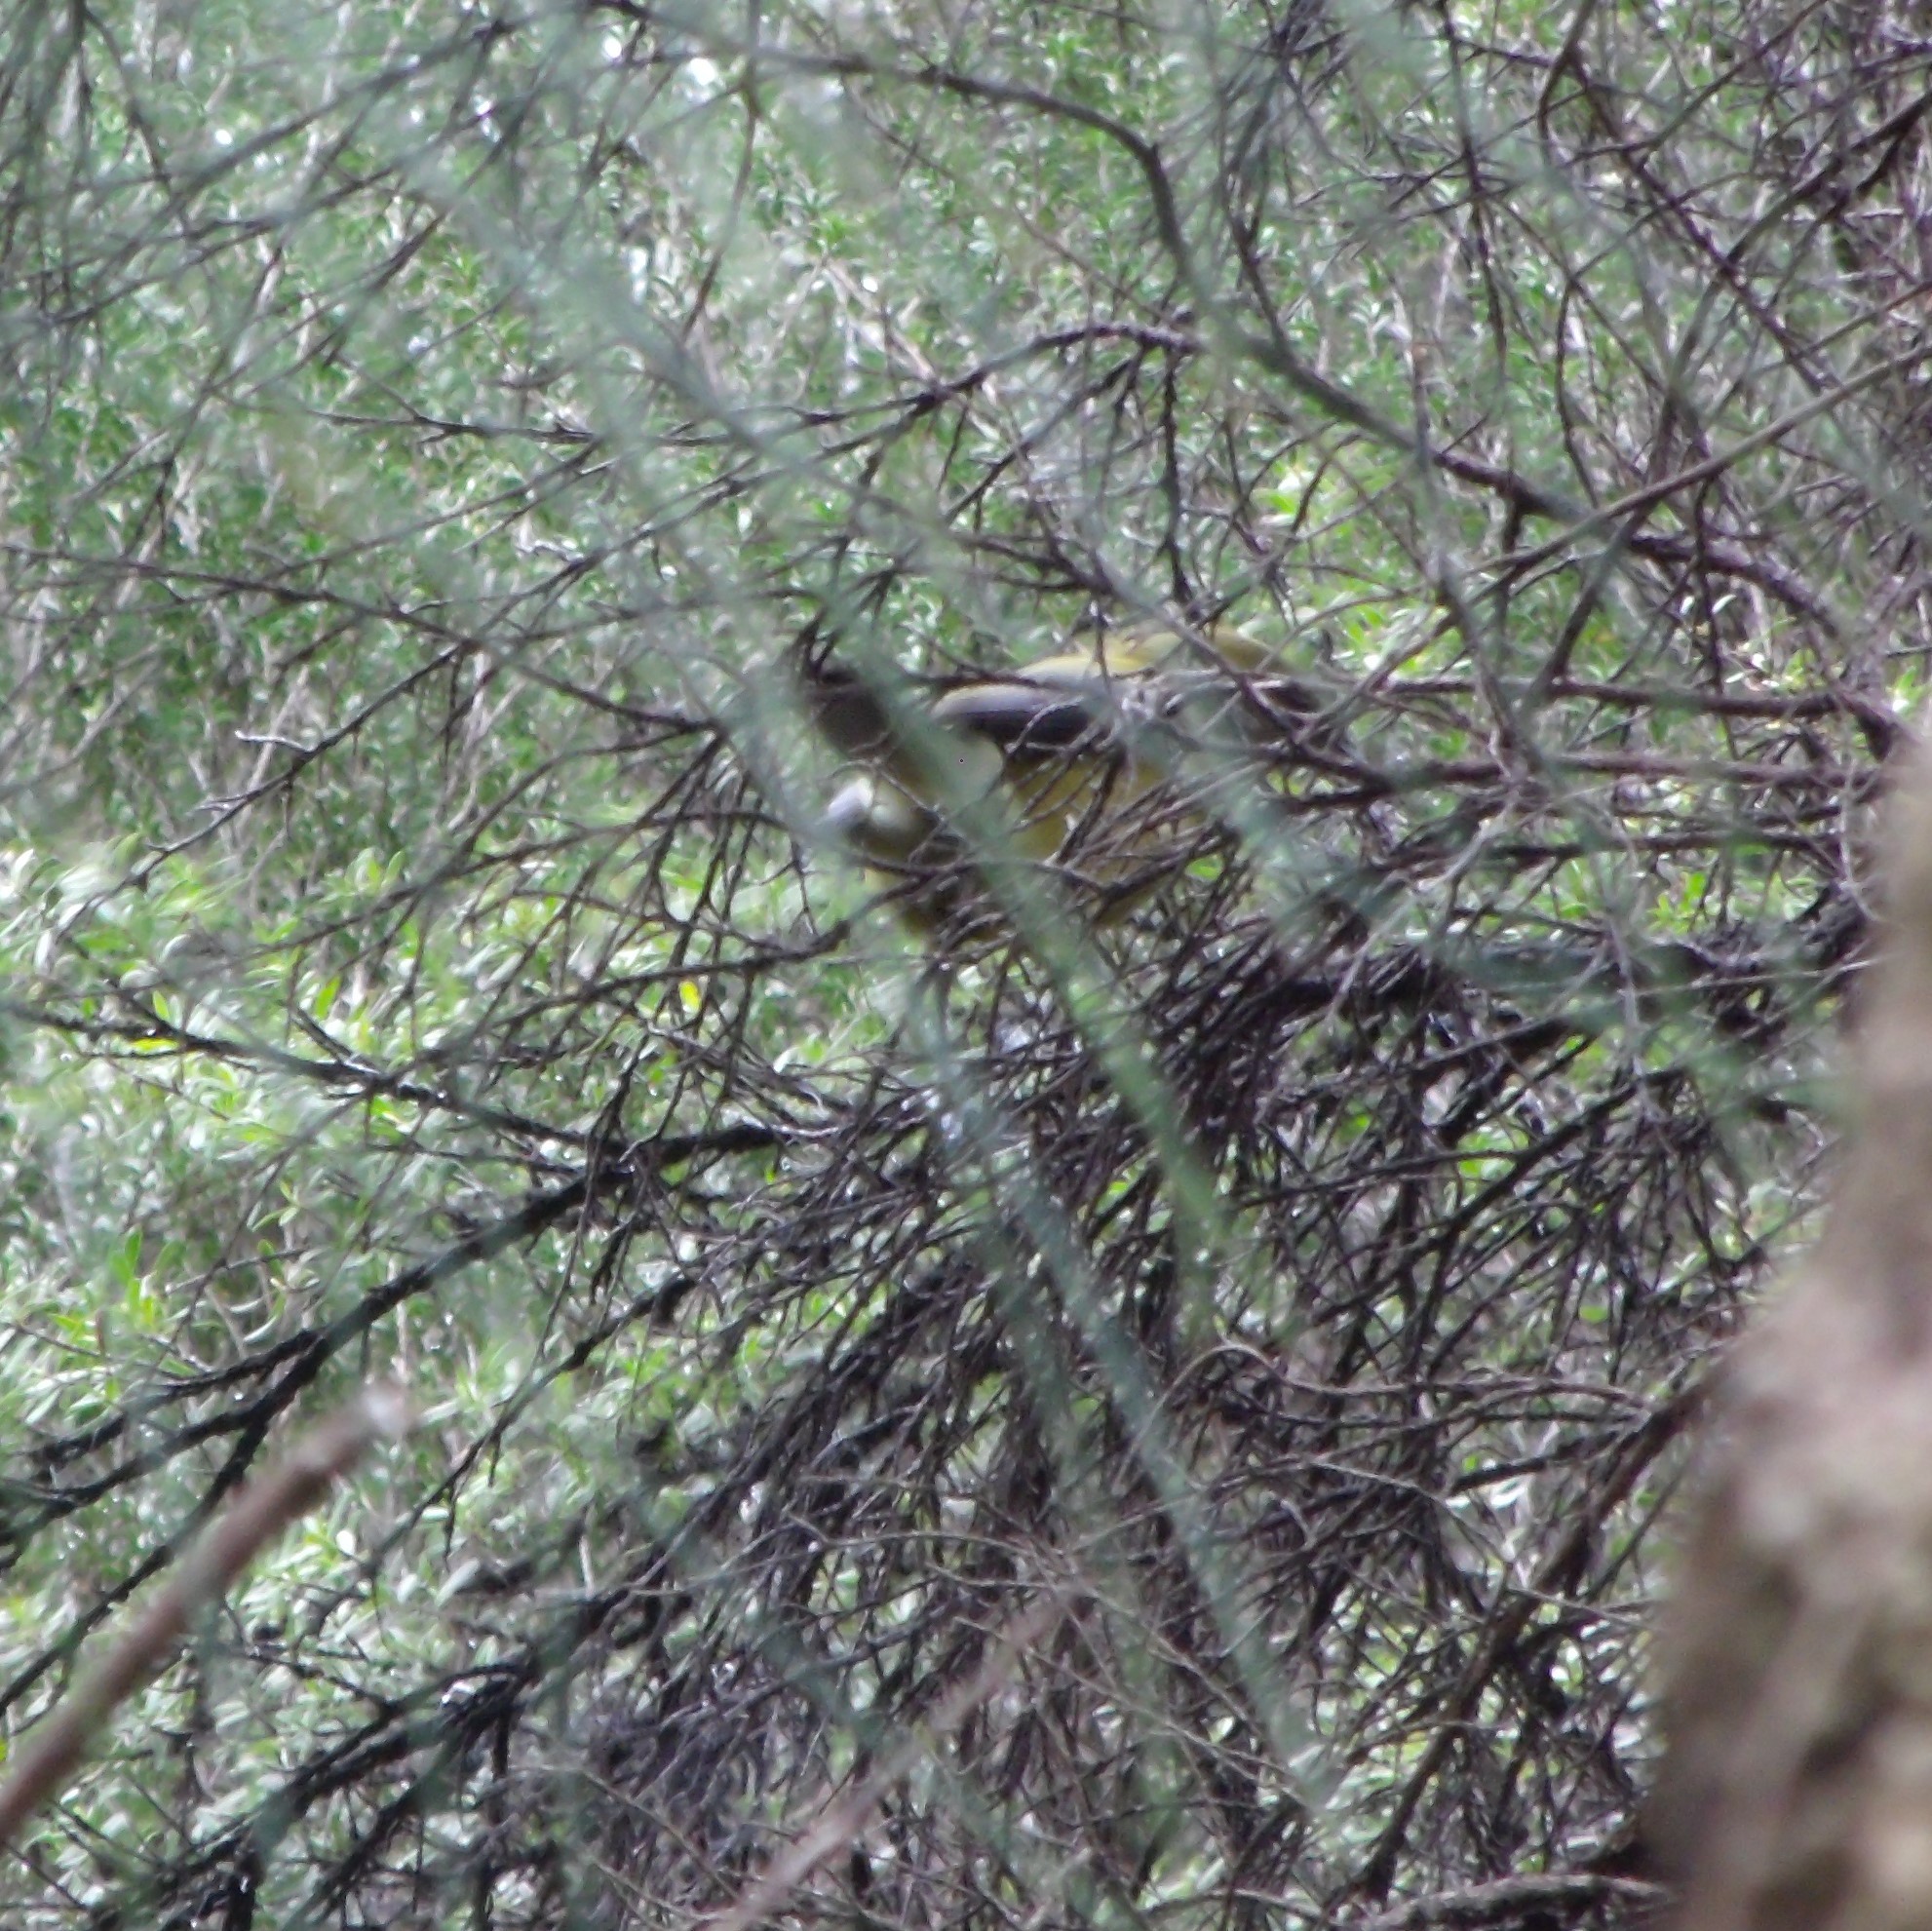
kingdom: Animalia
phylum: Chordata
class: Aves
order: Passeriformes
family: Meliphagidae
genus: Anthornis
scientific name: Anthornis melanura
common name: New zealand bellbird
